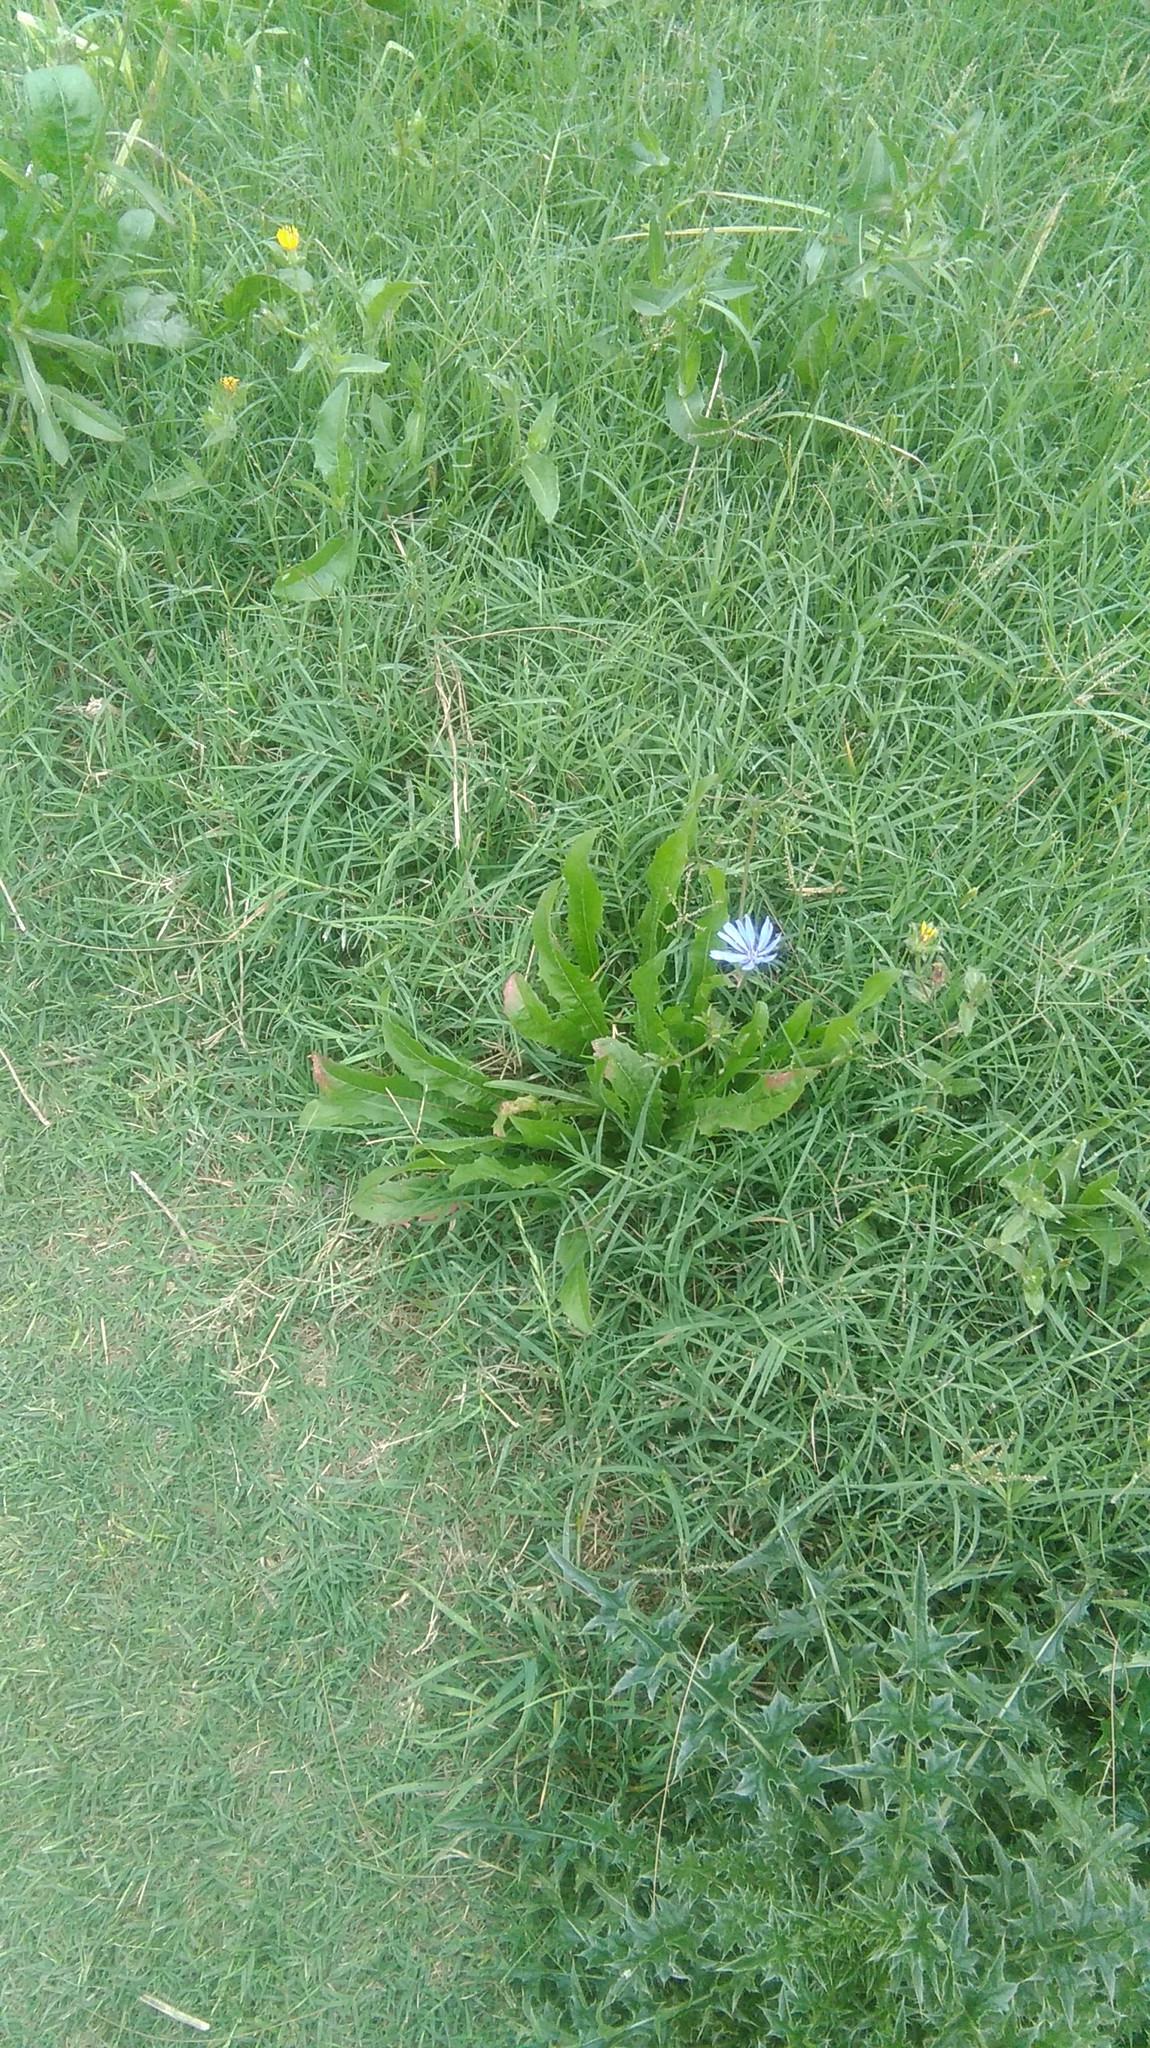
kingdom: Plantae
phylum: Tracheophyta
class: Magnoliopsida
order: Asterales
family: Asteraceae
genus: Cichorium
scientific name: Cichorium intybus
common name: Chicory
